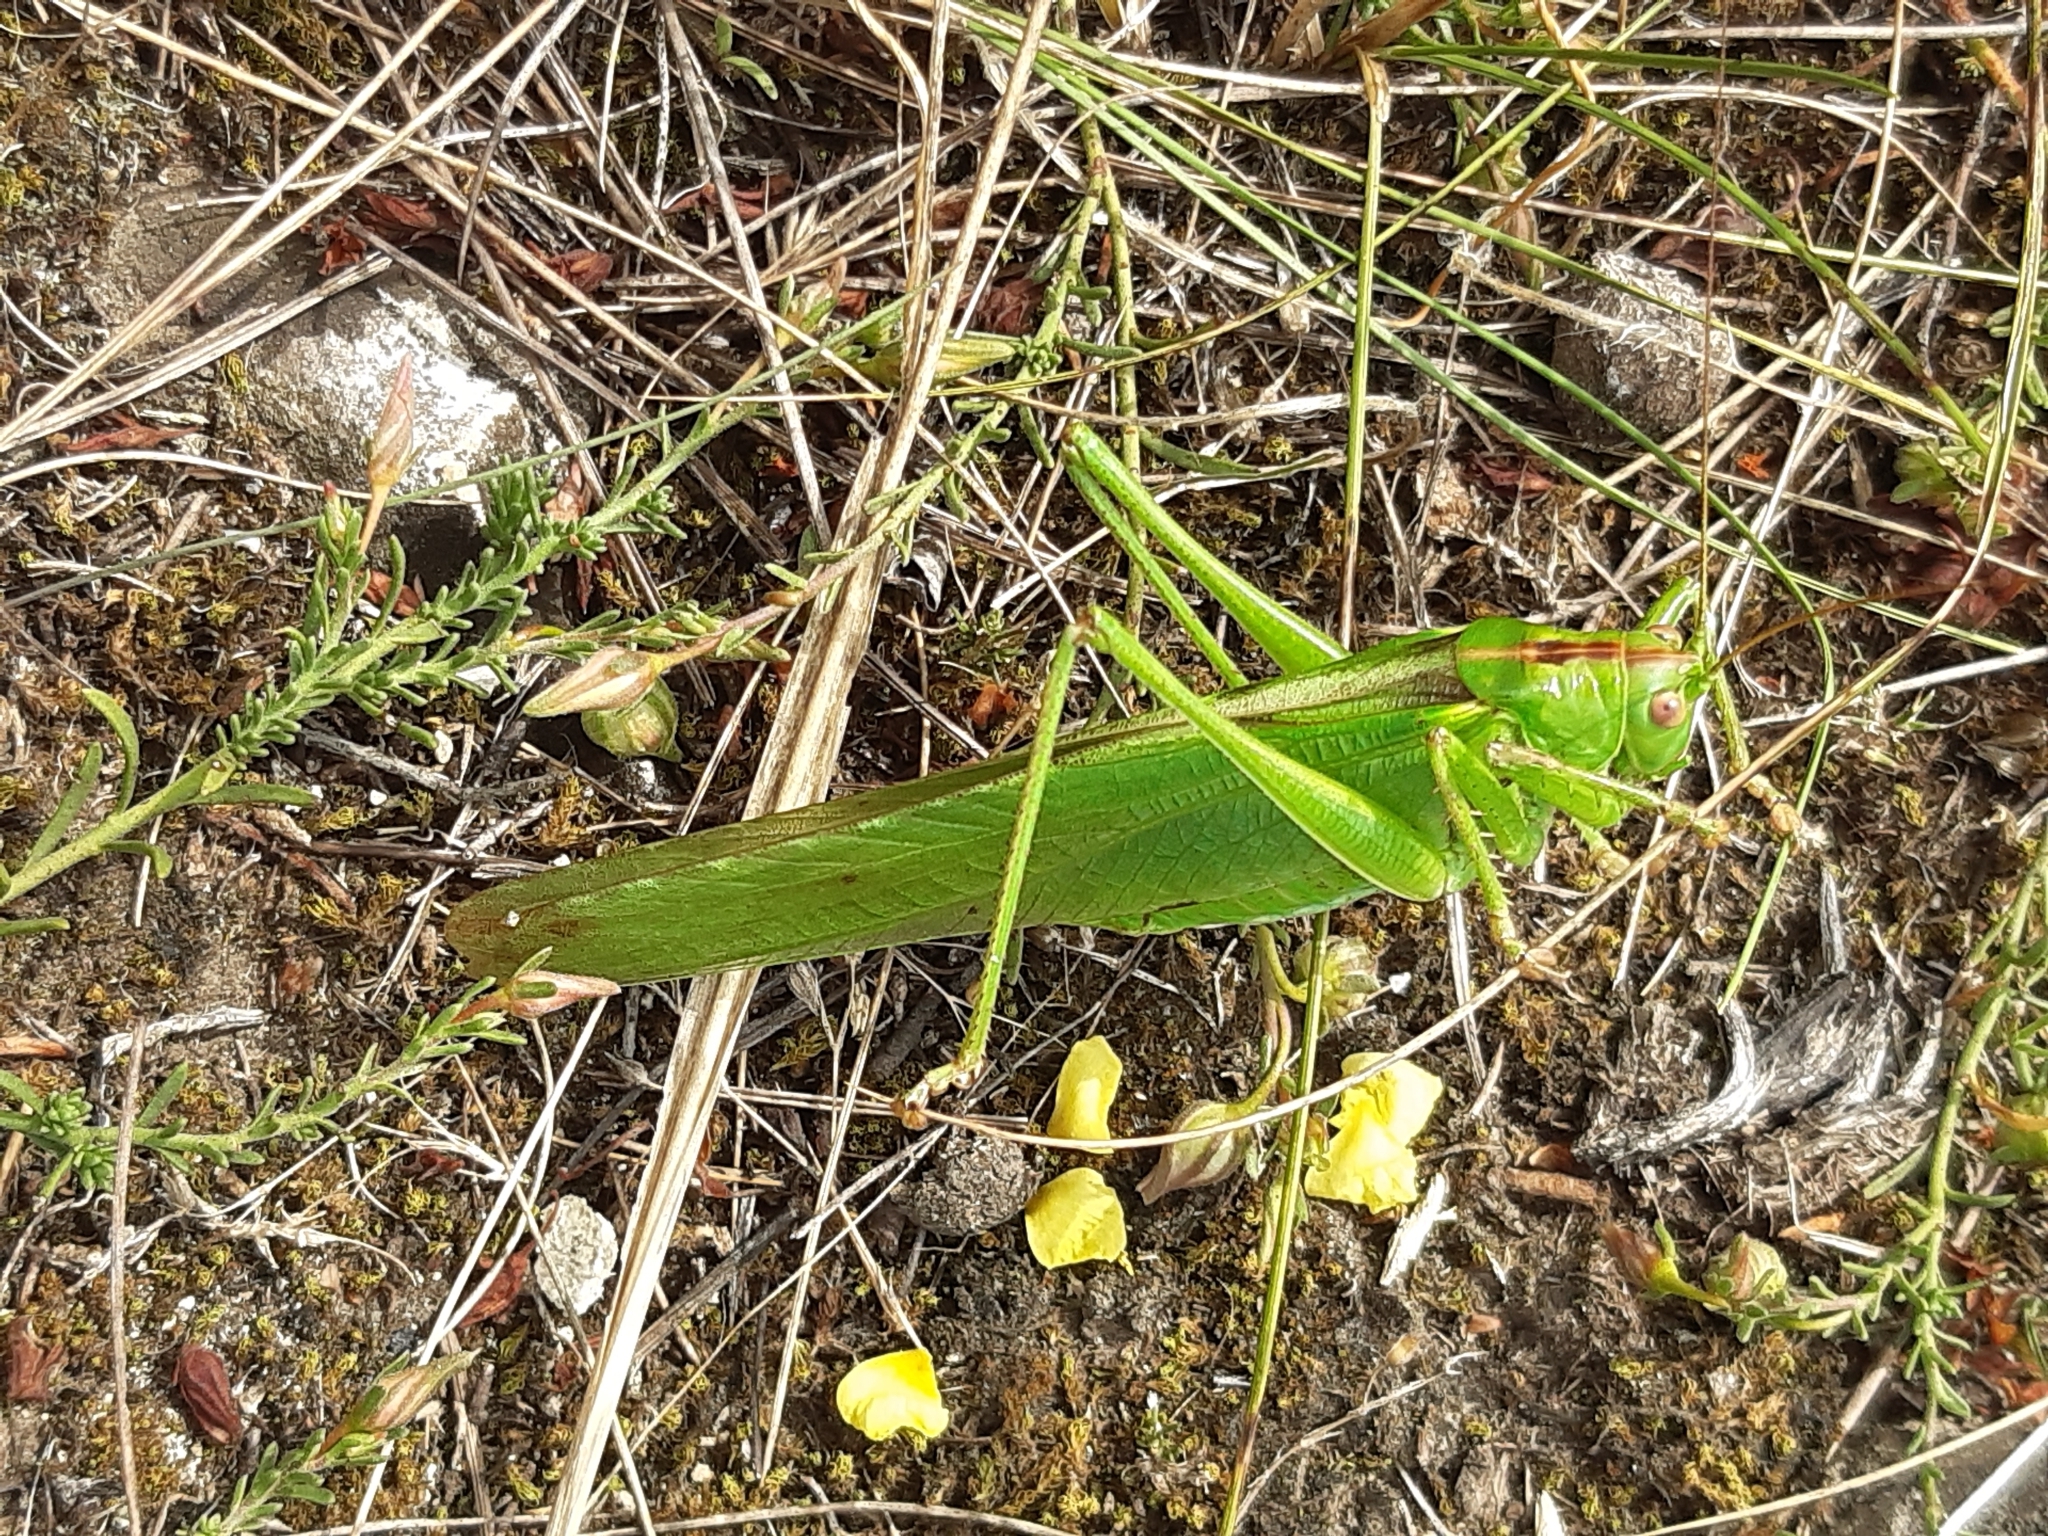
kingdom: Animalia
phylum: Arthropoda
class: Insecta
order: Orthoptera
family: Tettigoniidae
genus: Tettigonia
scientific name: Tettigonia viridissima
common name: Great green bush-cricket
